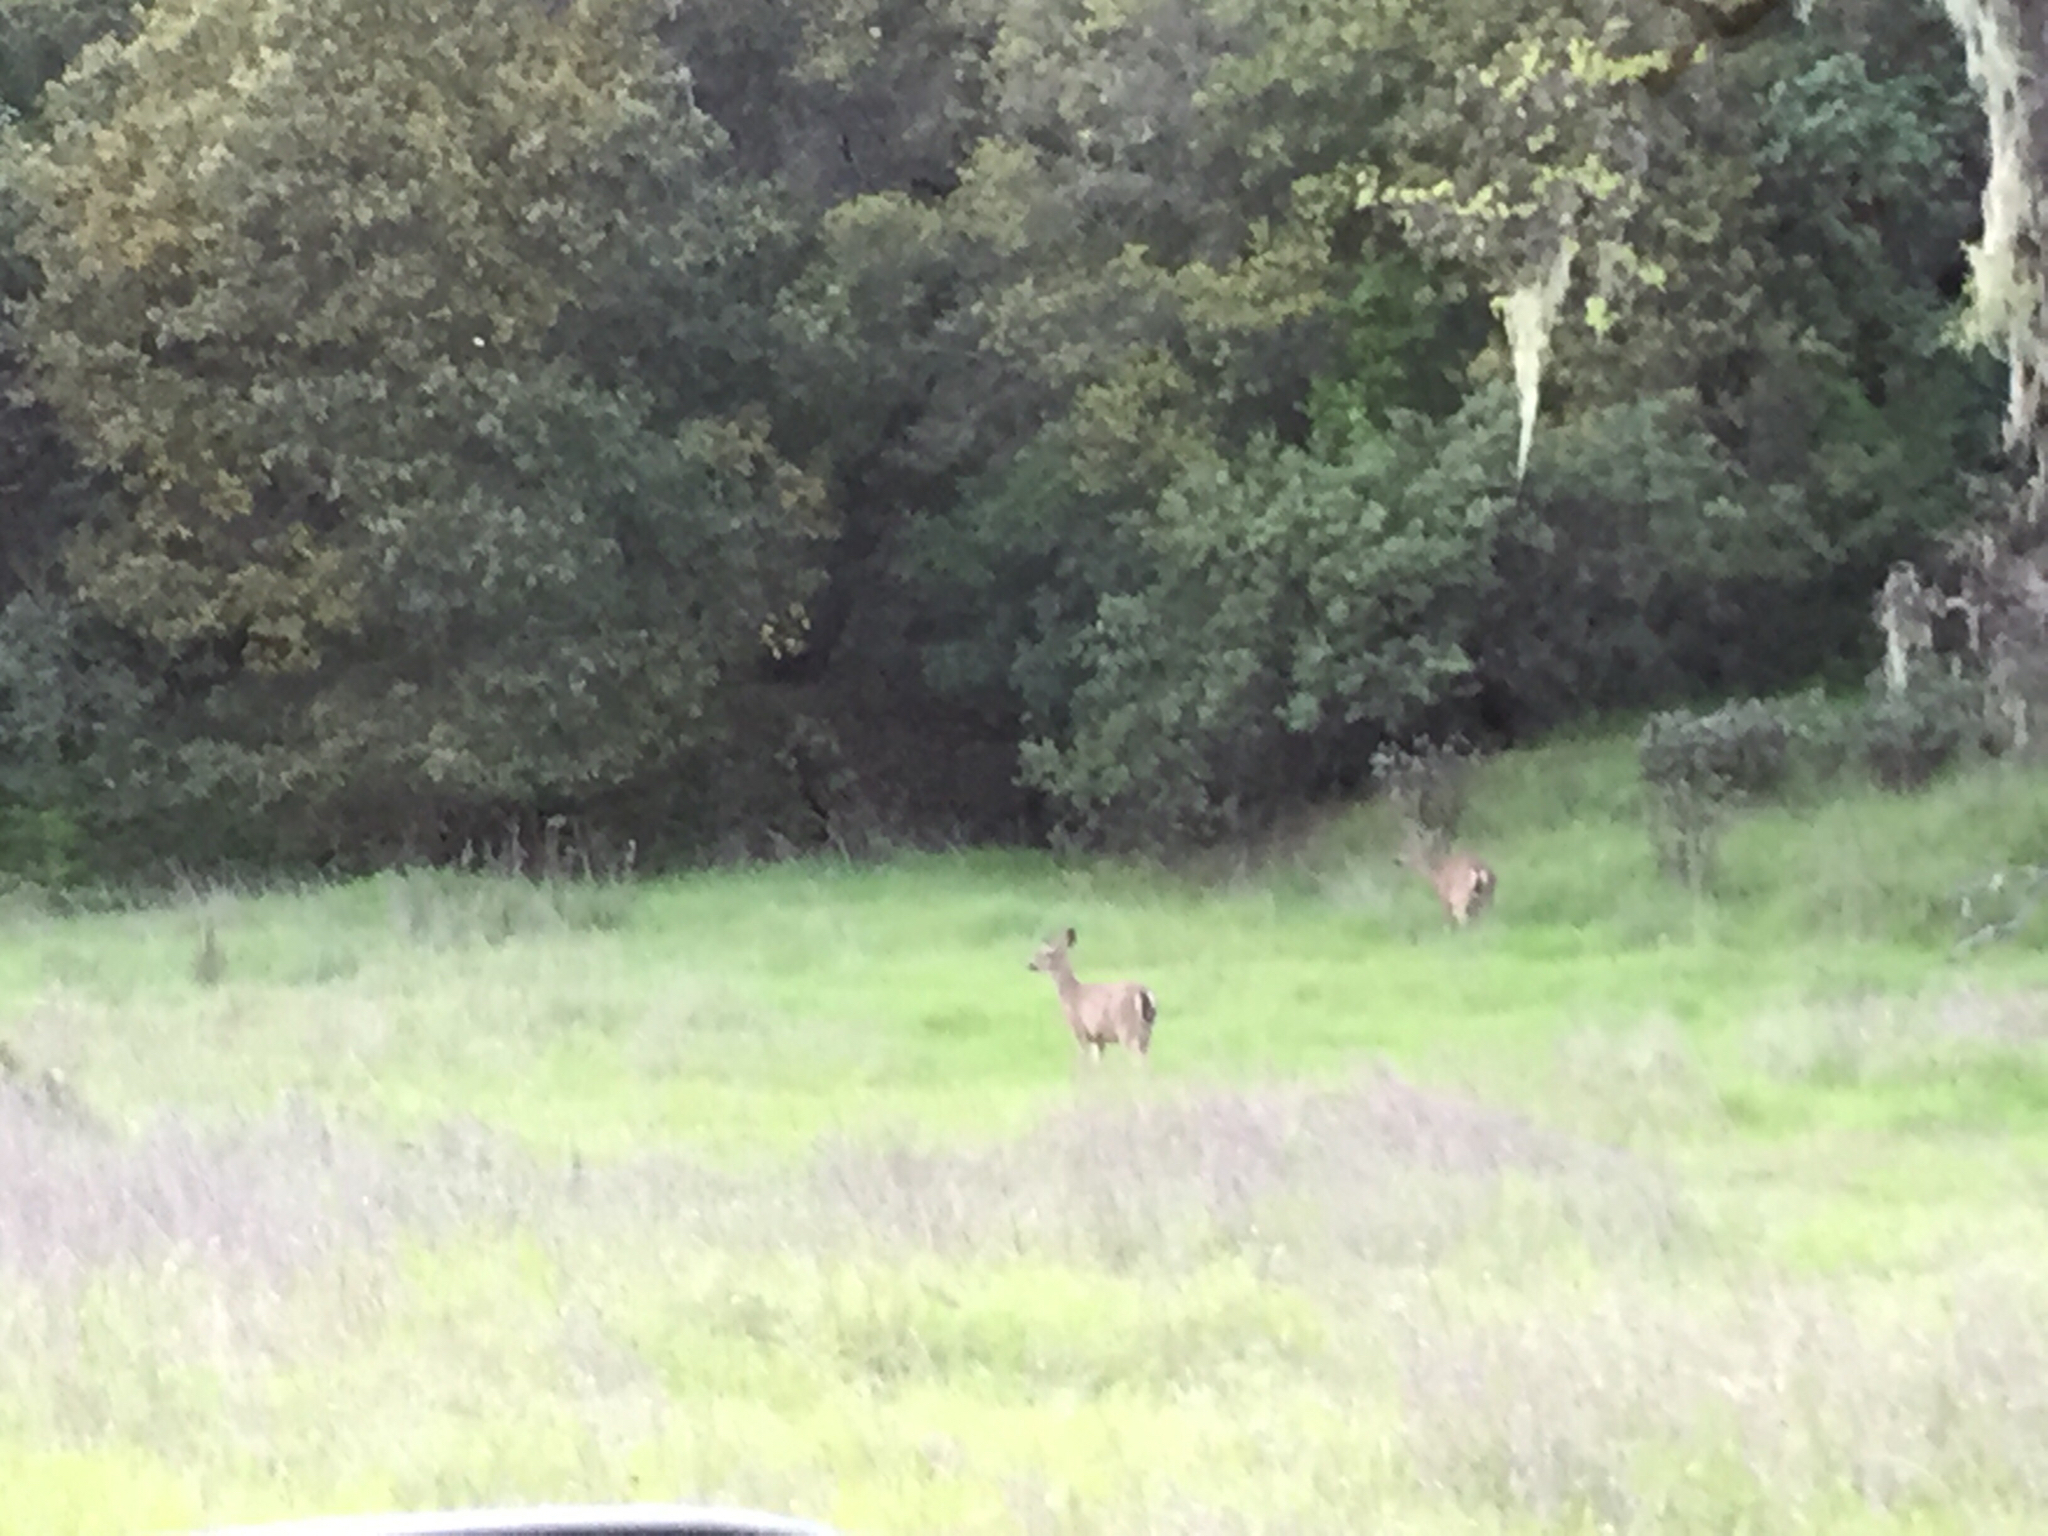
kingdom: Animalia
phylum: Chordata
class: Mammalia
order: Artiodactyla
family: Cervidae
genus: Odocoileus
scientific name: Odocoileus hemionus
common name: Mule deer
